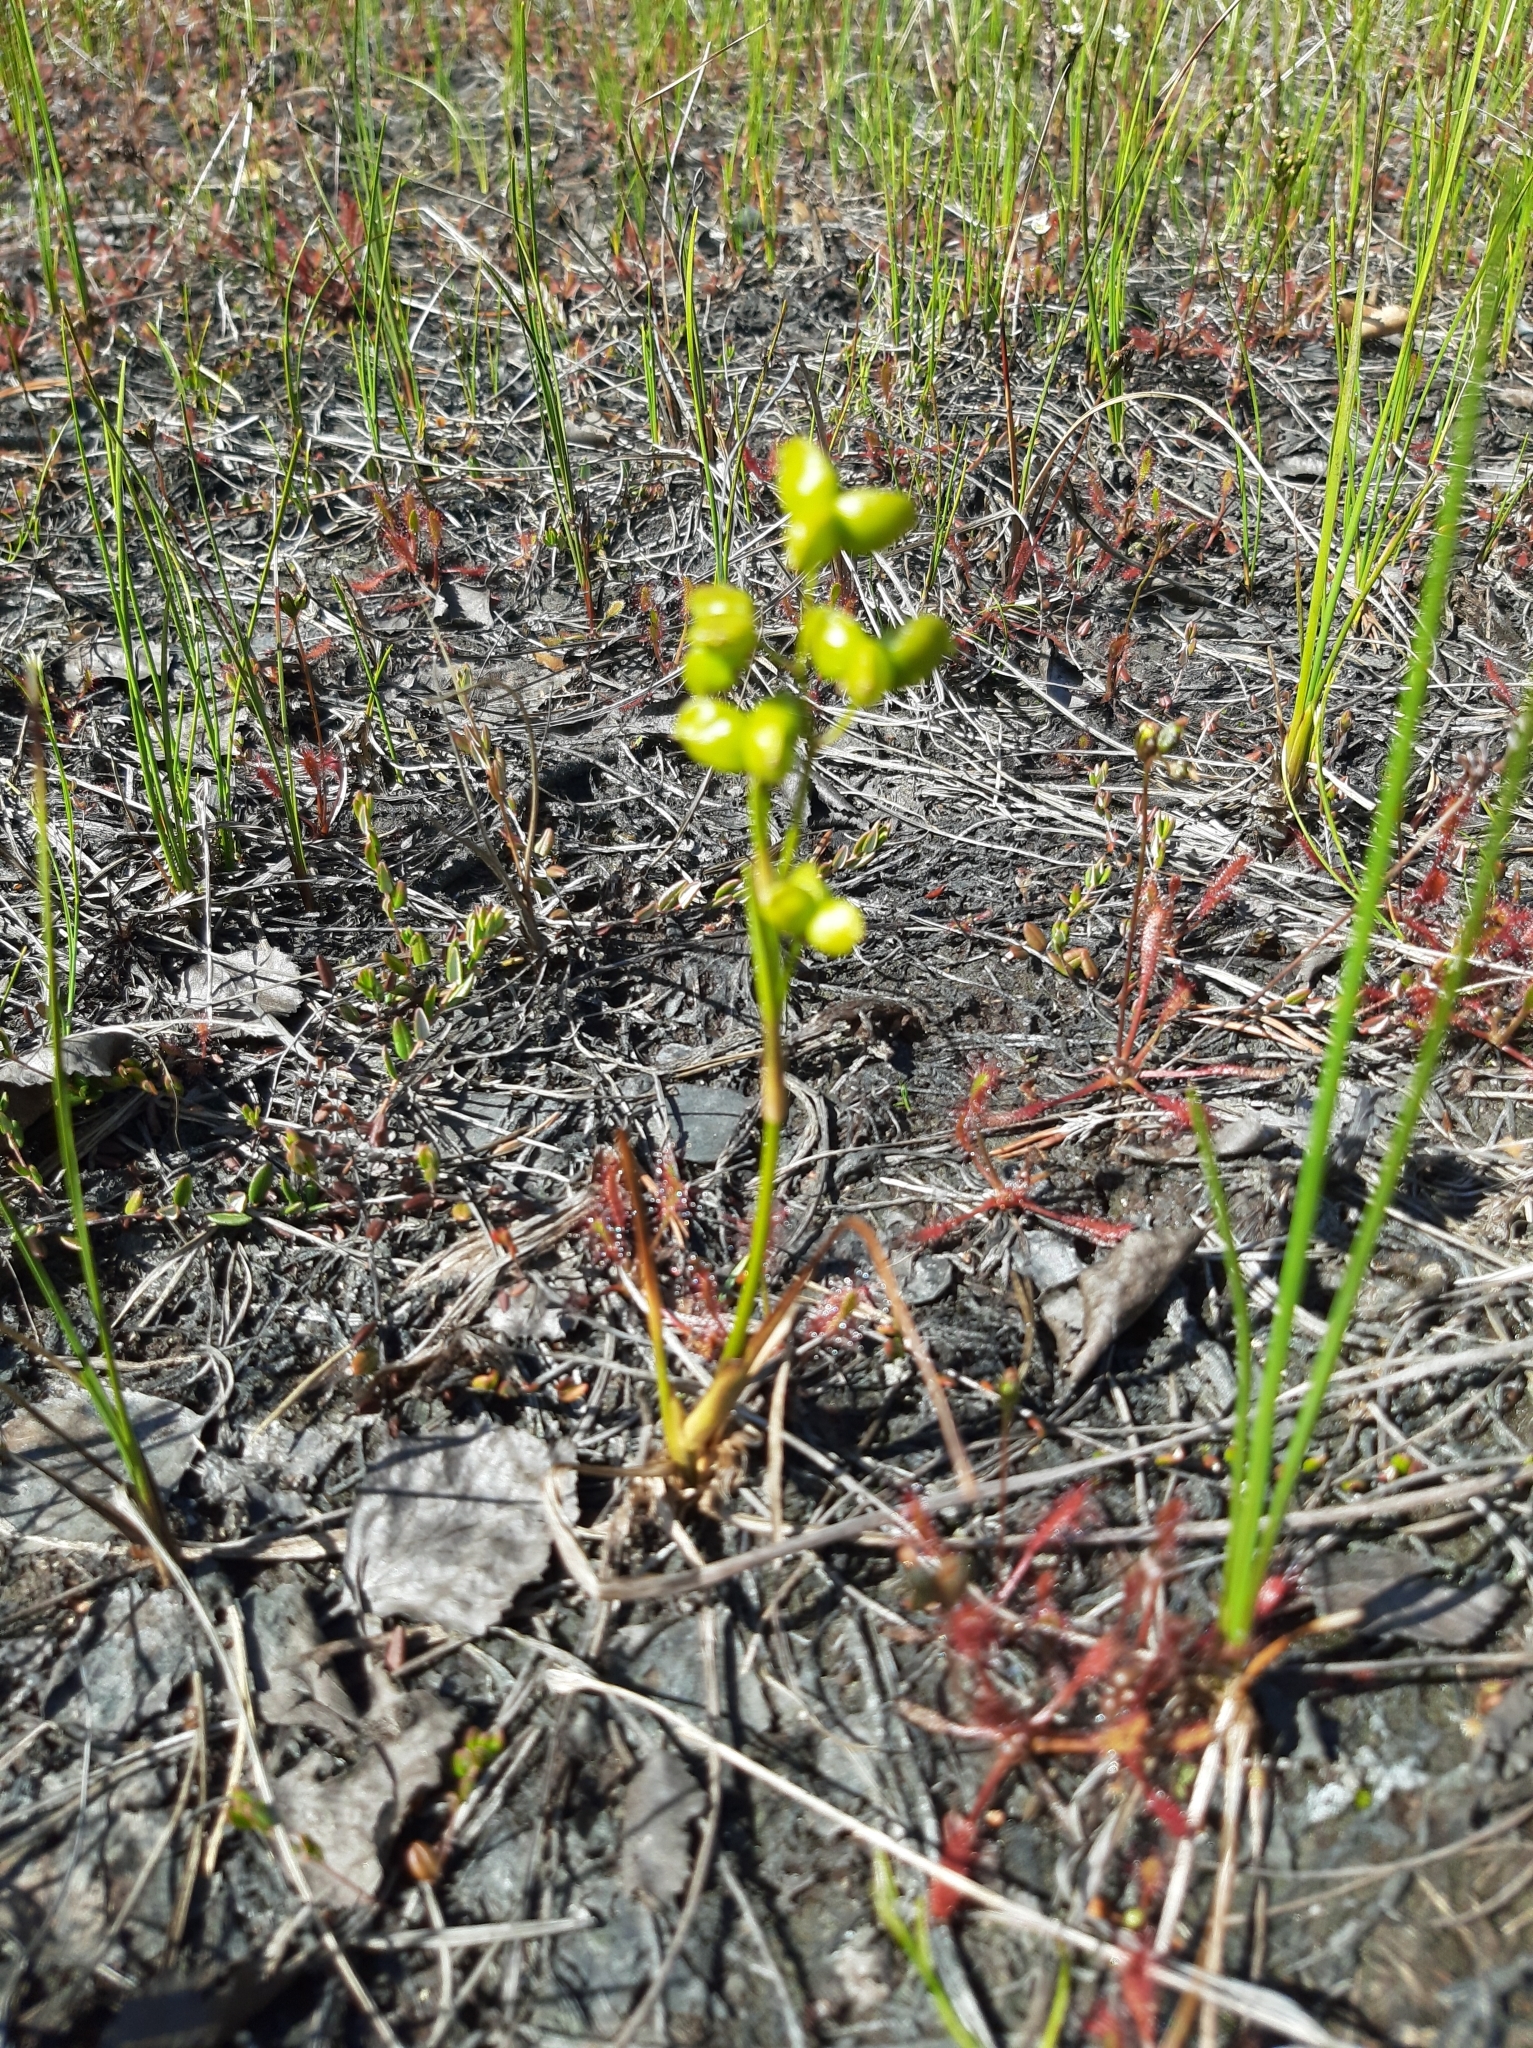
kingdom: Plantae
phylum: Tracheophyta
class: Liliopsida
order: Alismatales
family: Scheuchzeriaceae
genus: Scheuchzeria
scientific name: Scheuchzeria palustris
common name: Rannoch-rush
